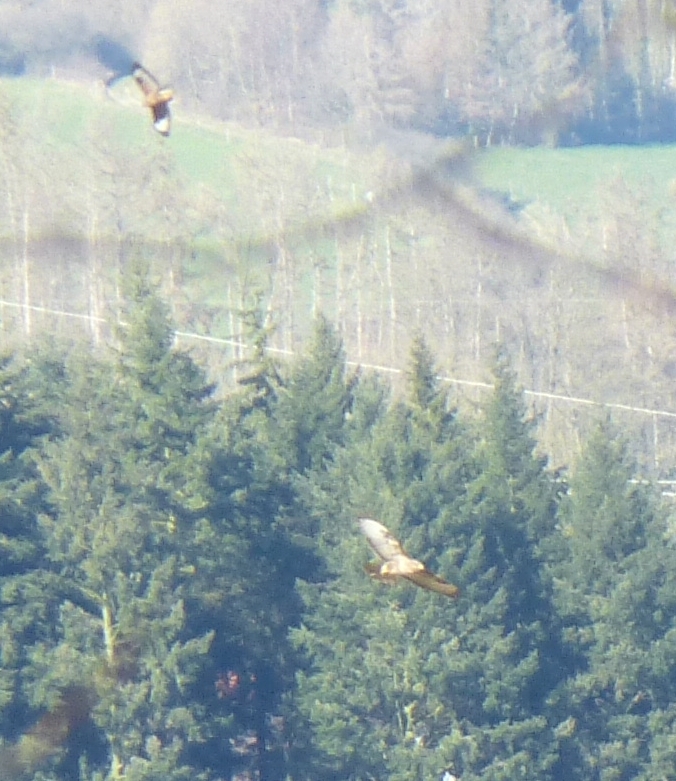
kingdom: Animalia
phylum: Chordata
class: Aves
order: Accipitriformes
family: Accipitridae
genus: Buteo
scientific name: Buteo buteo
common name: Common buzzard
